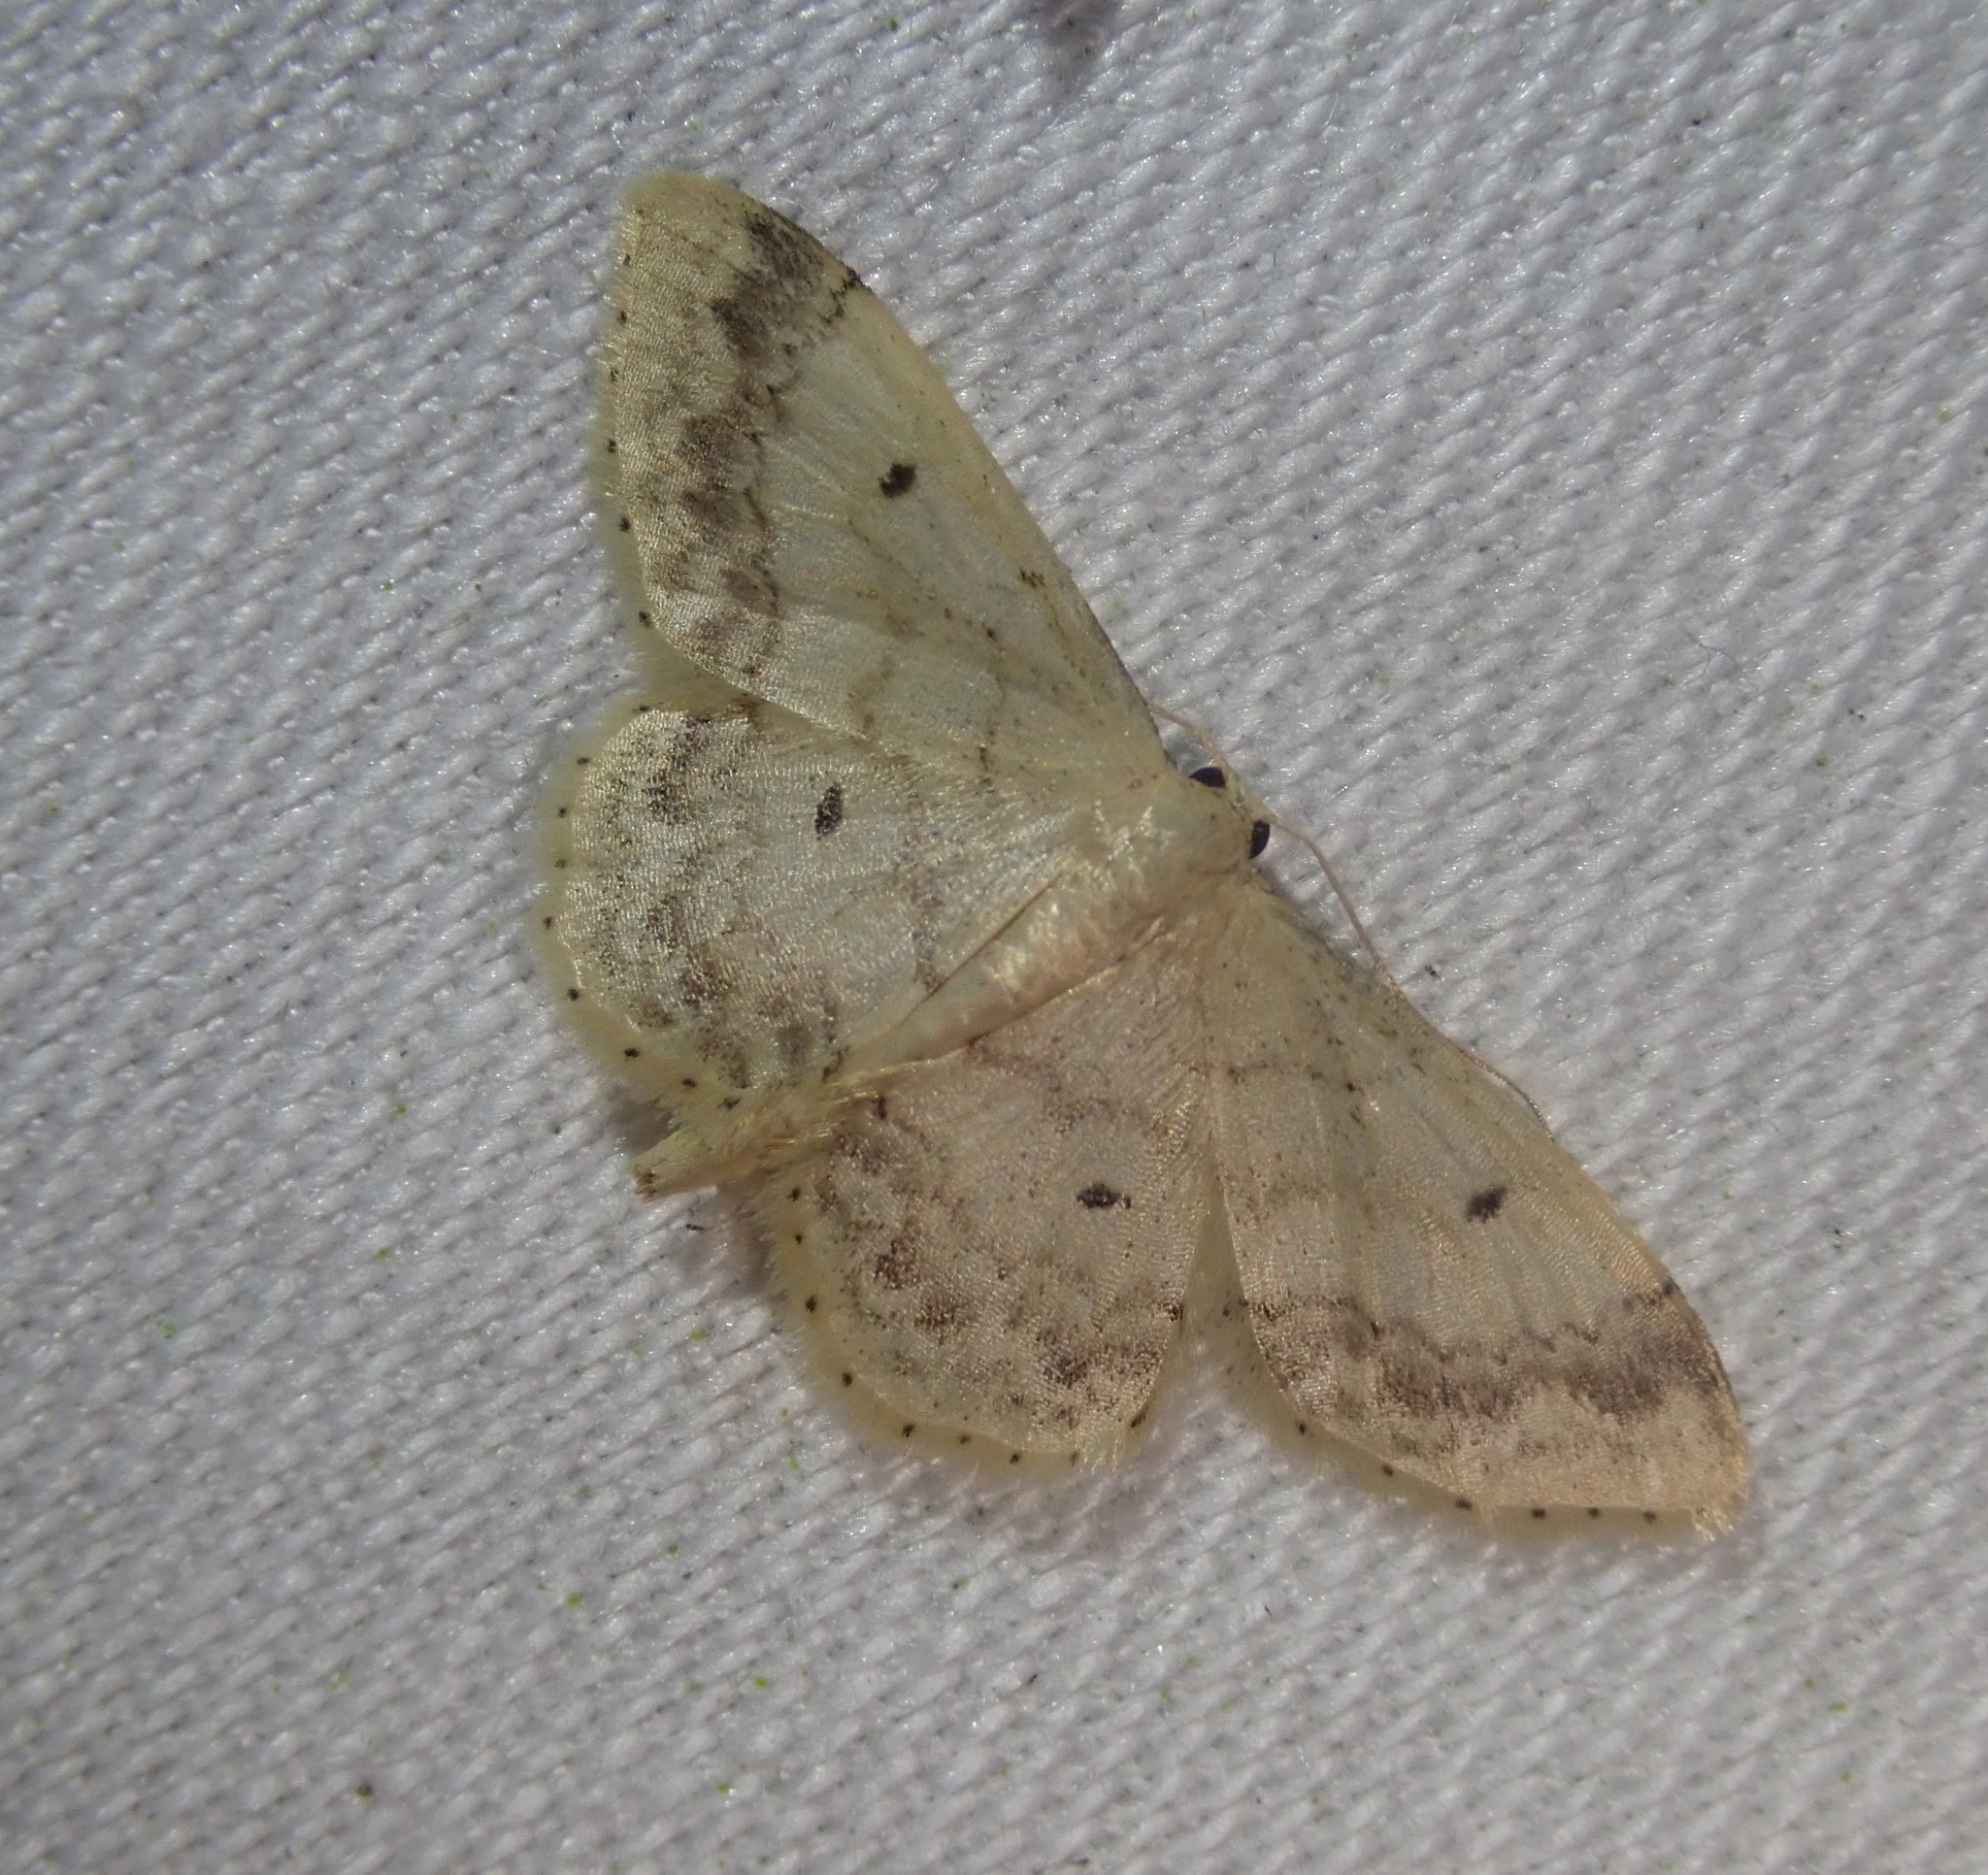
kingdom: Animalia
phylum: Arthropoda
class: Insecta
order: Lepidoptera
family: Geometridae
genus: Idaea
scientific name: Idaea biselata
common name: Small fan-footed wave
